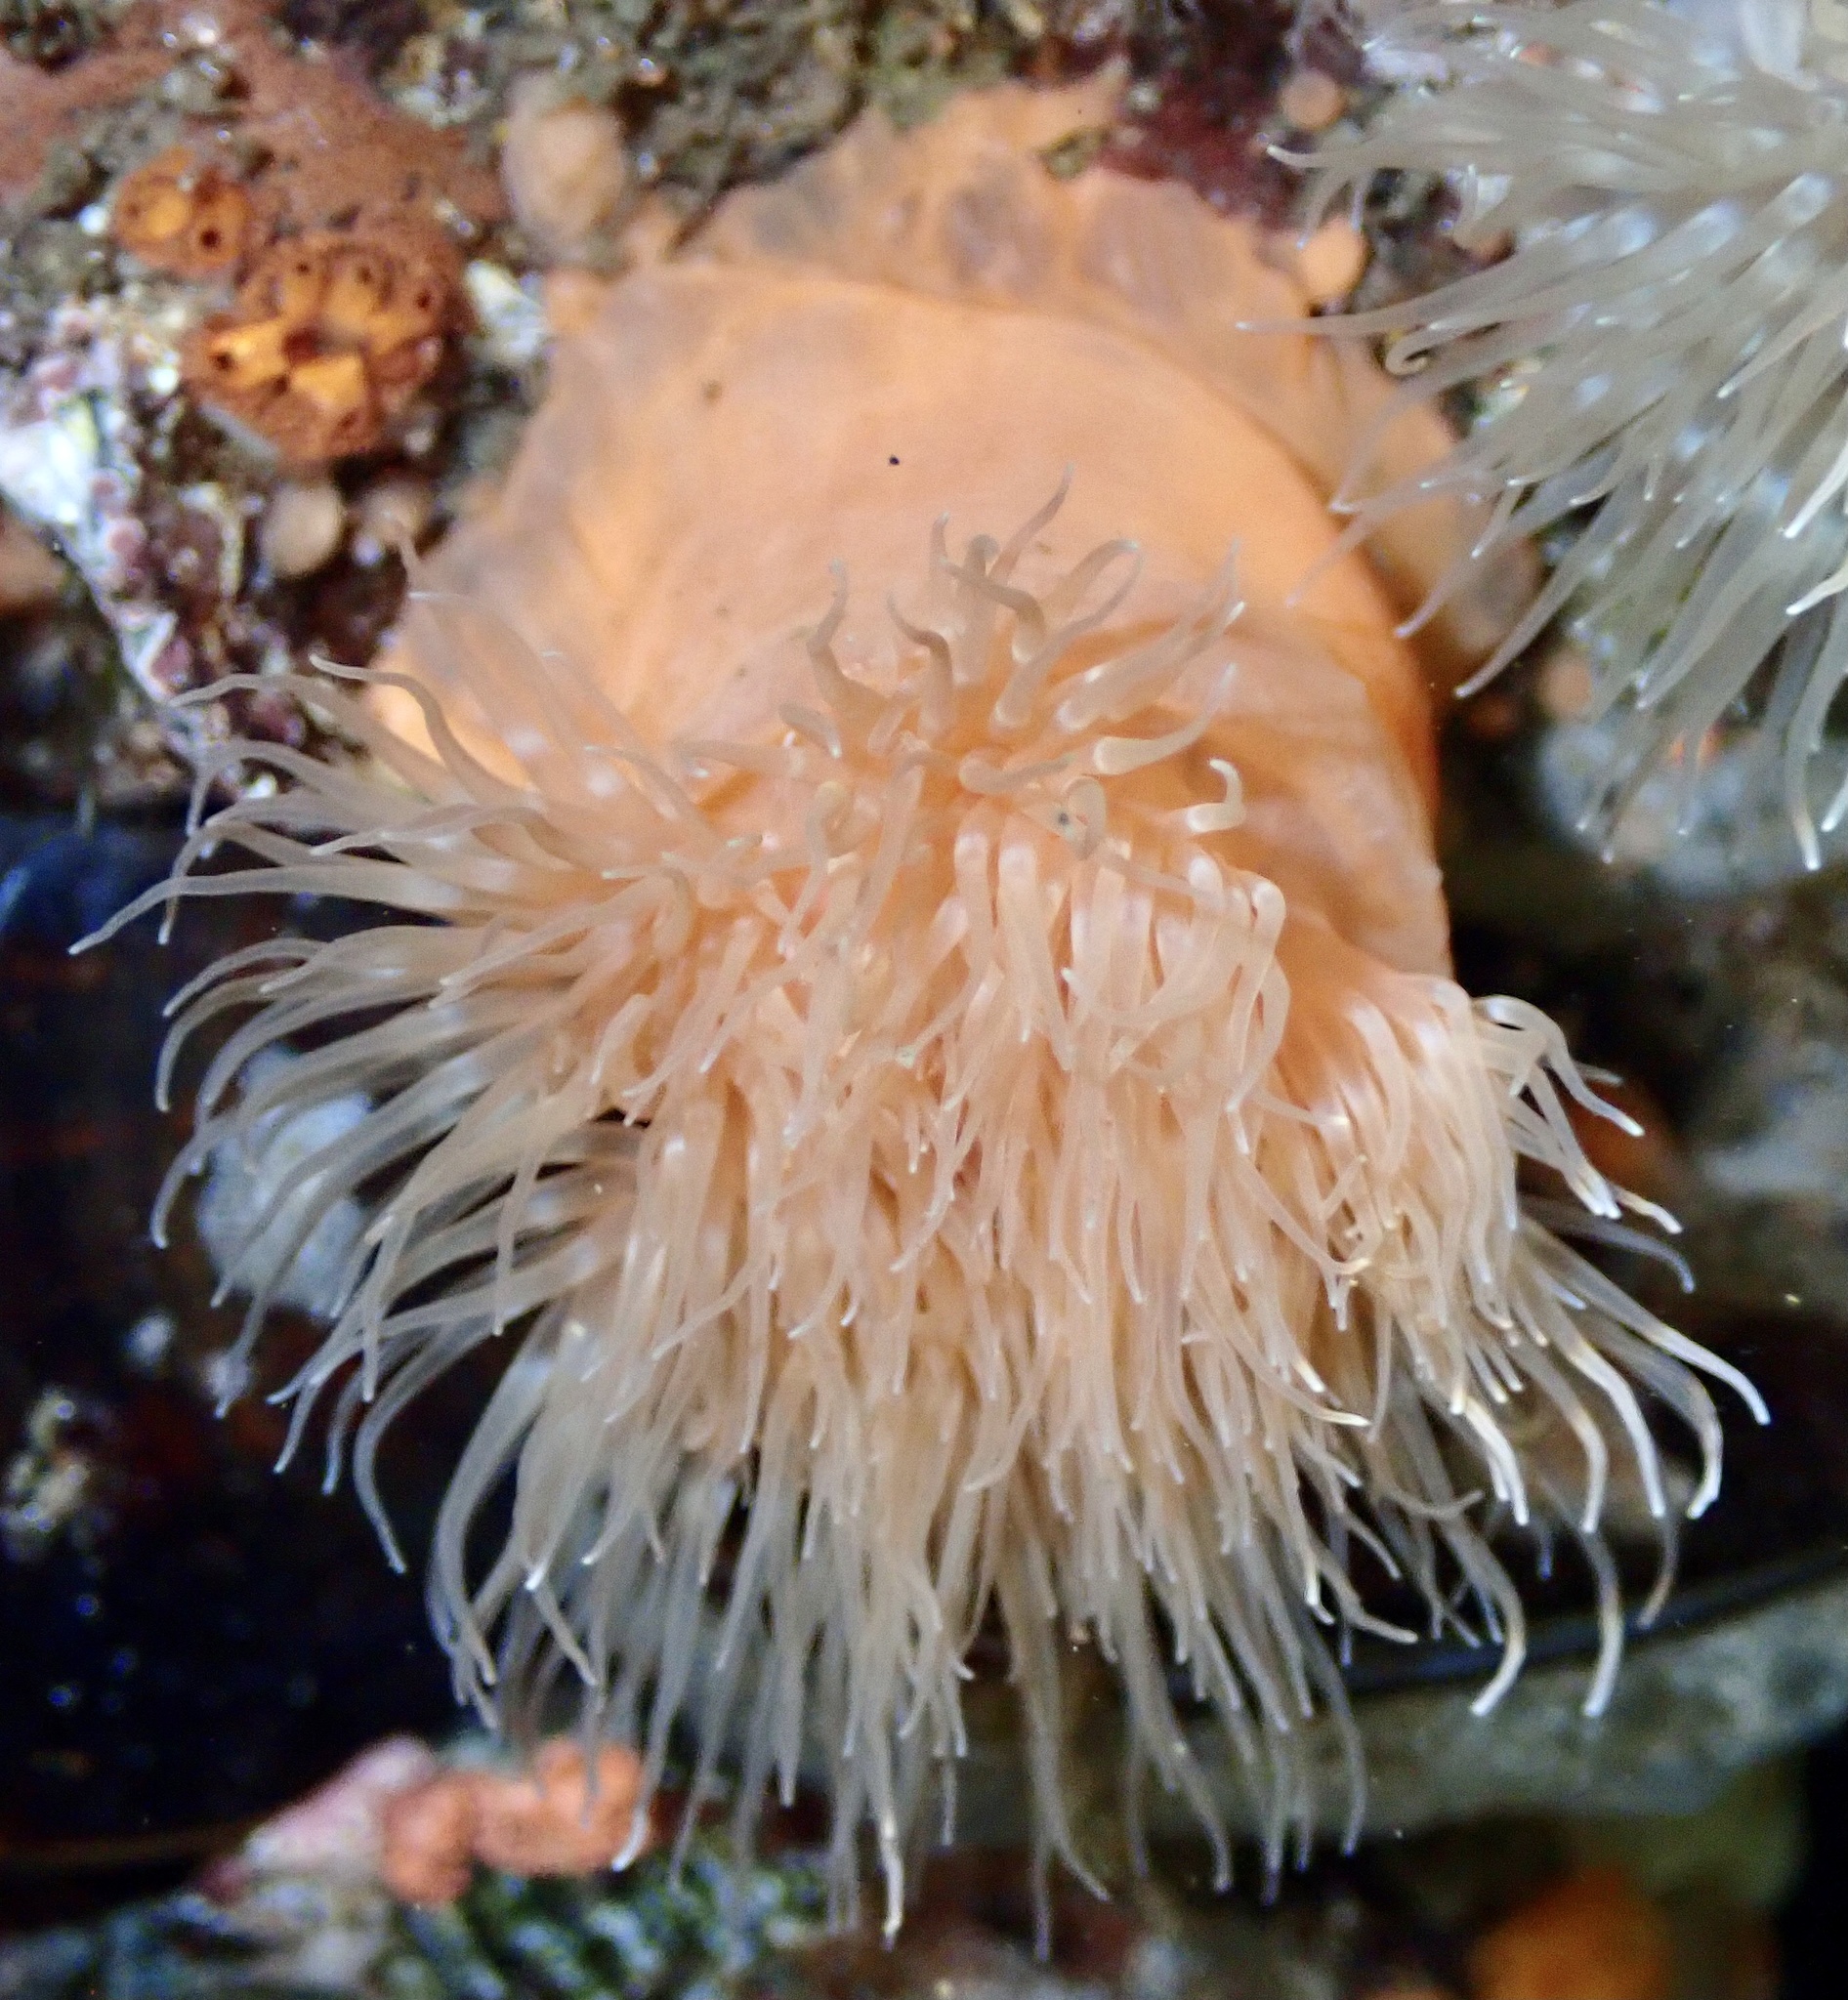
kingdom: Animalia
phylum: Cnidaria
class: Anthozoa
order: Actiniaria
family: Metridiidae
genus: Metridium
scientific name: Metridium senile
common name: Clonal plumose anemone
